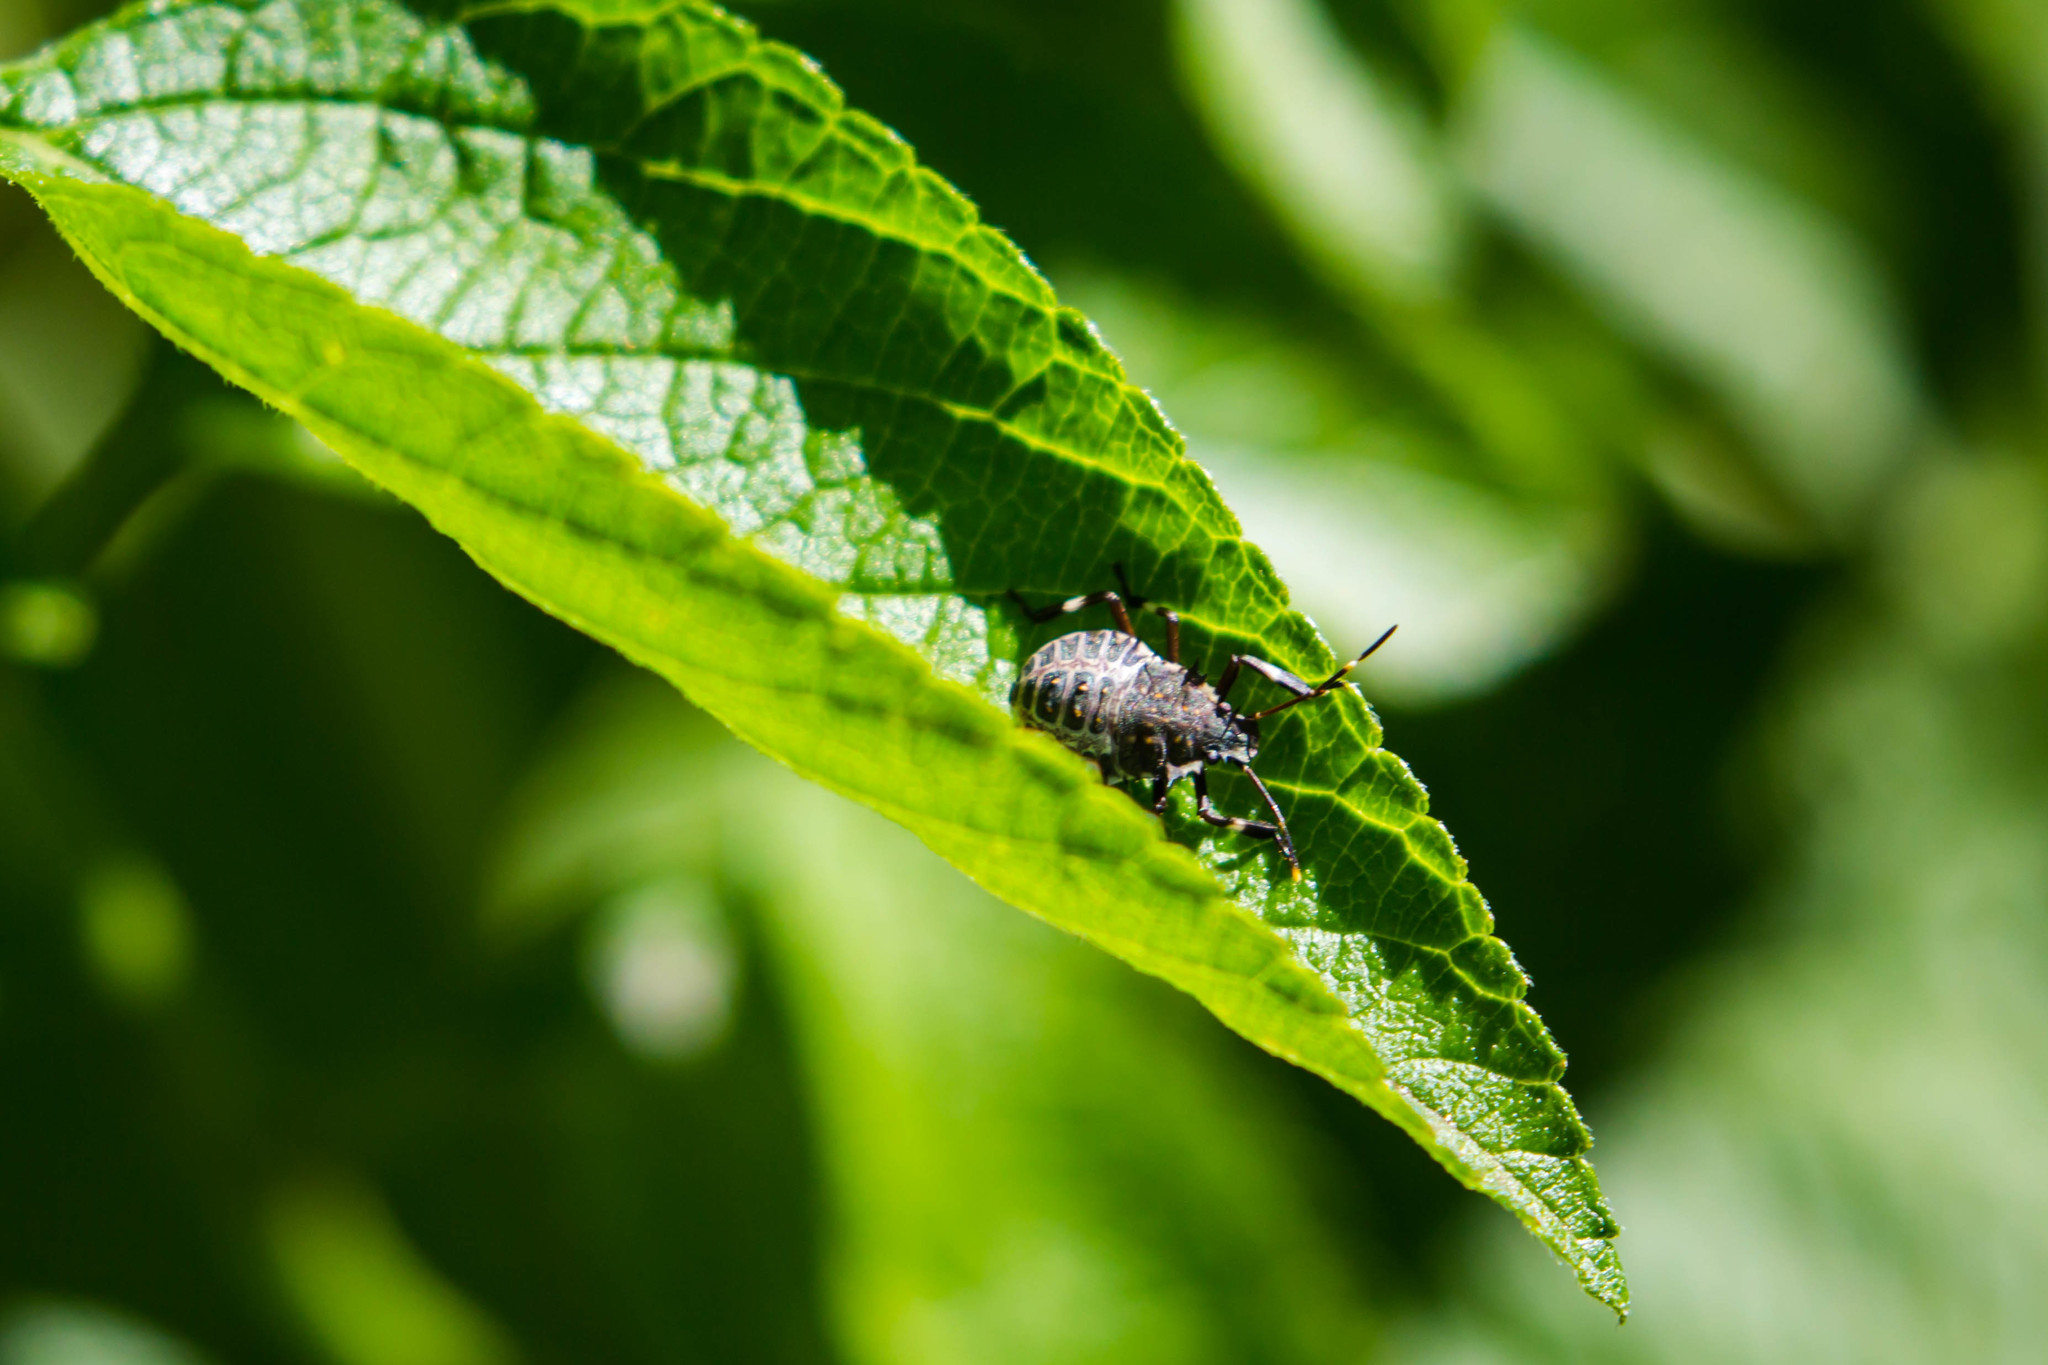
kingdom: Animalia
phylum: Arthropoda
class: Insecta
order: Hemiptera
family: Pentatomidae
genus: Halyomorpha
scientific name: Halyomorpha halys
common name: Brown marmorated stink bug
